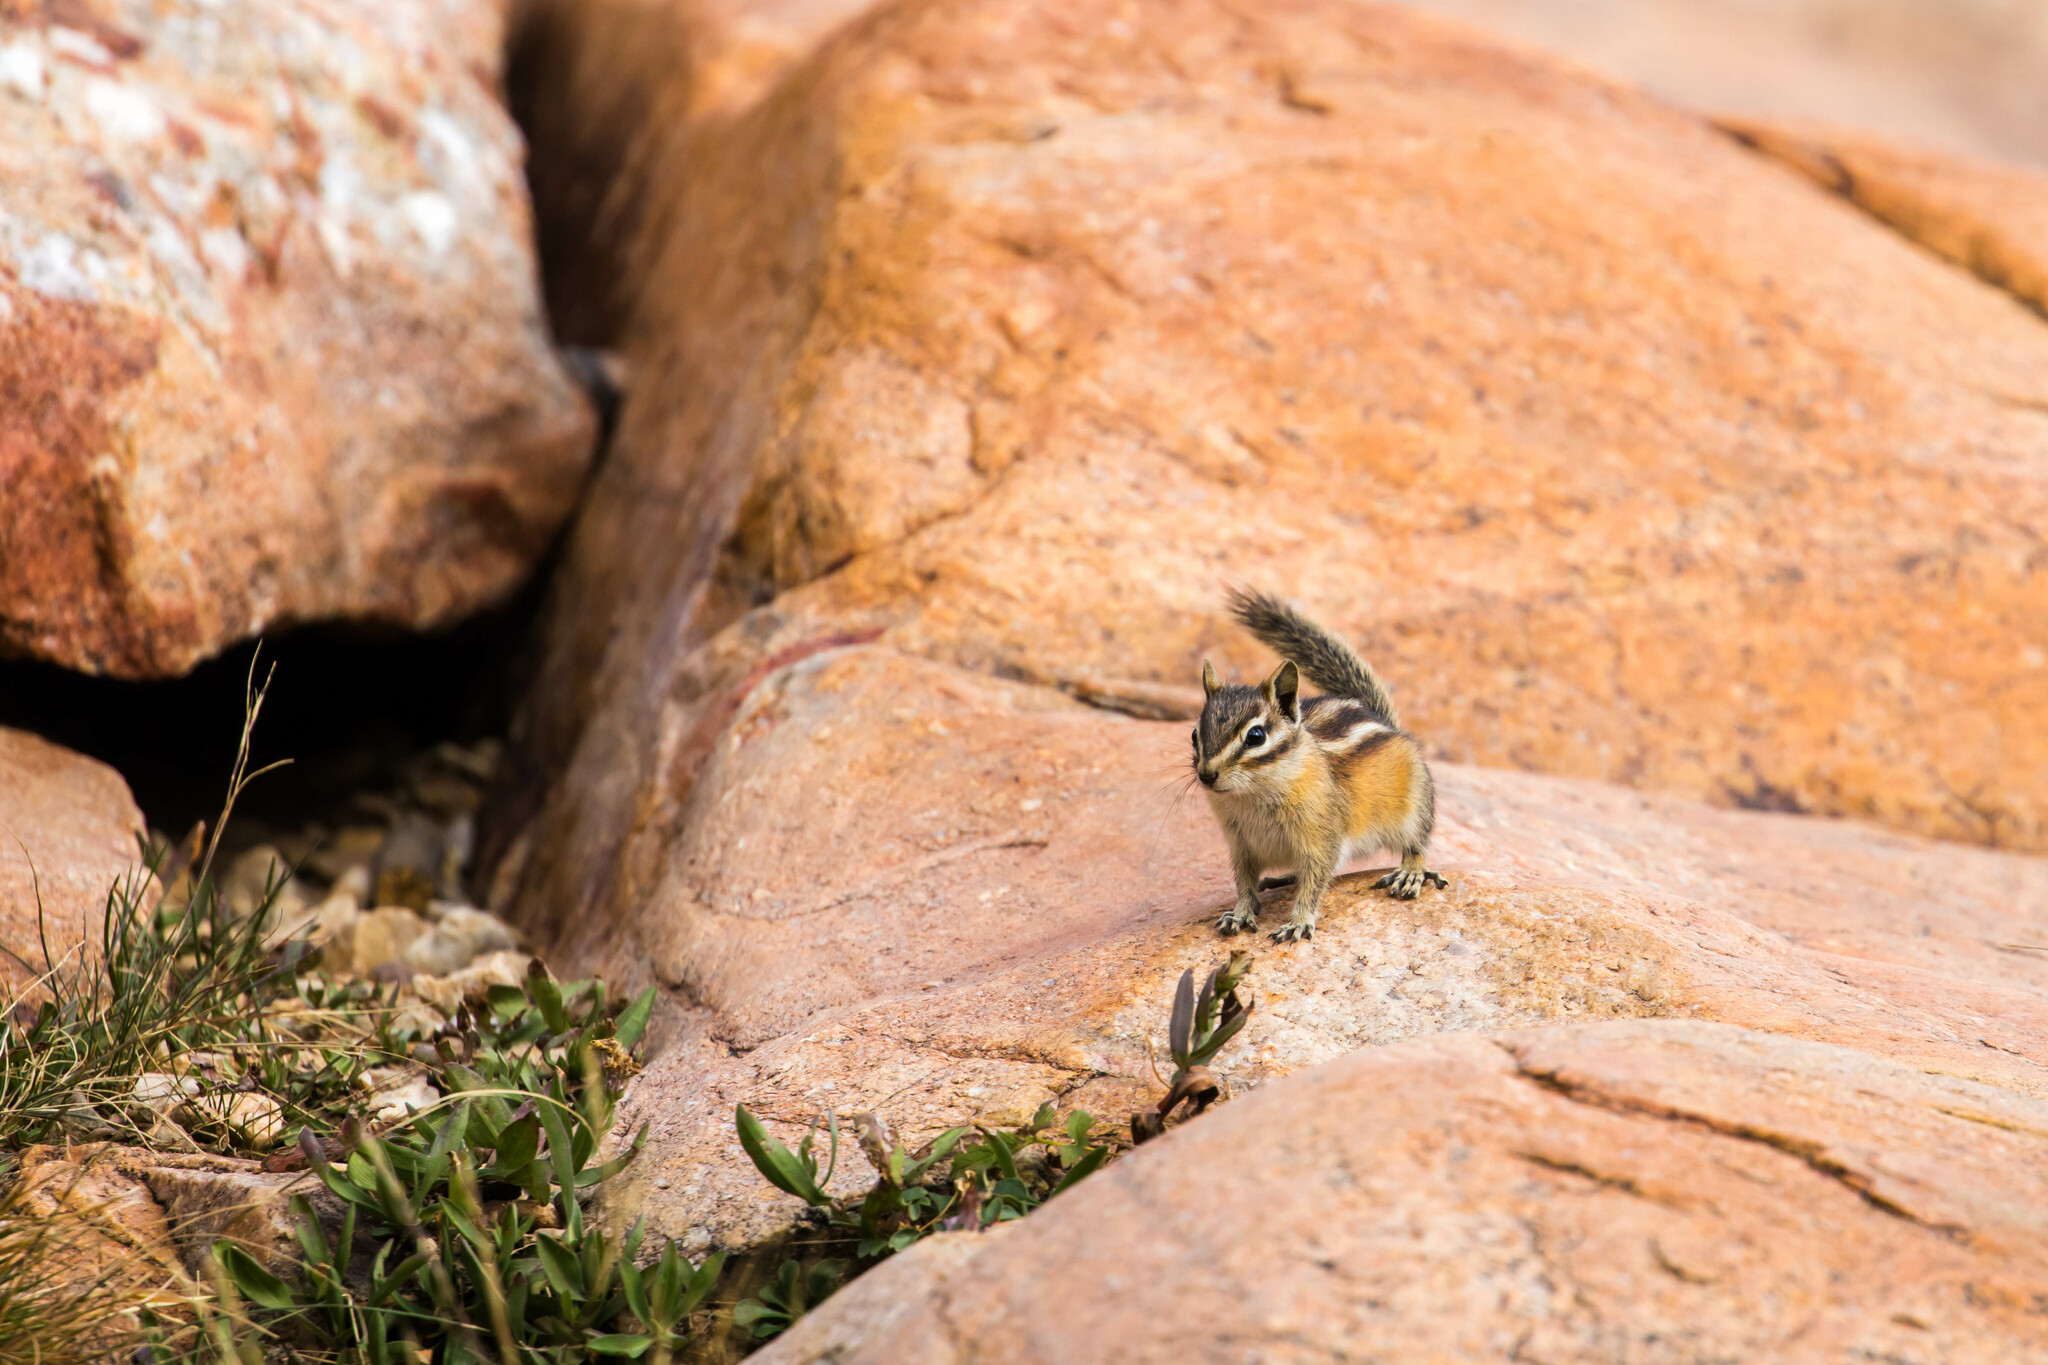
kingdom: Animalia
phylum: Chordata
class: Mammalia
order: Rodentia
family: Sciuridae
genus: Tamias
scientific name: Tamias minimus
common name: Least chipmunk
